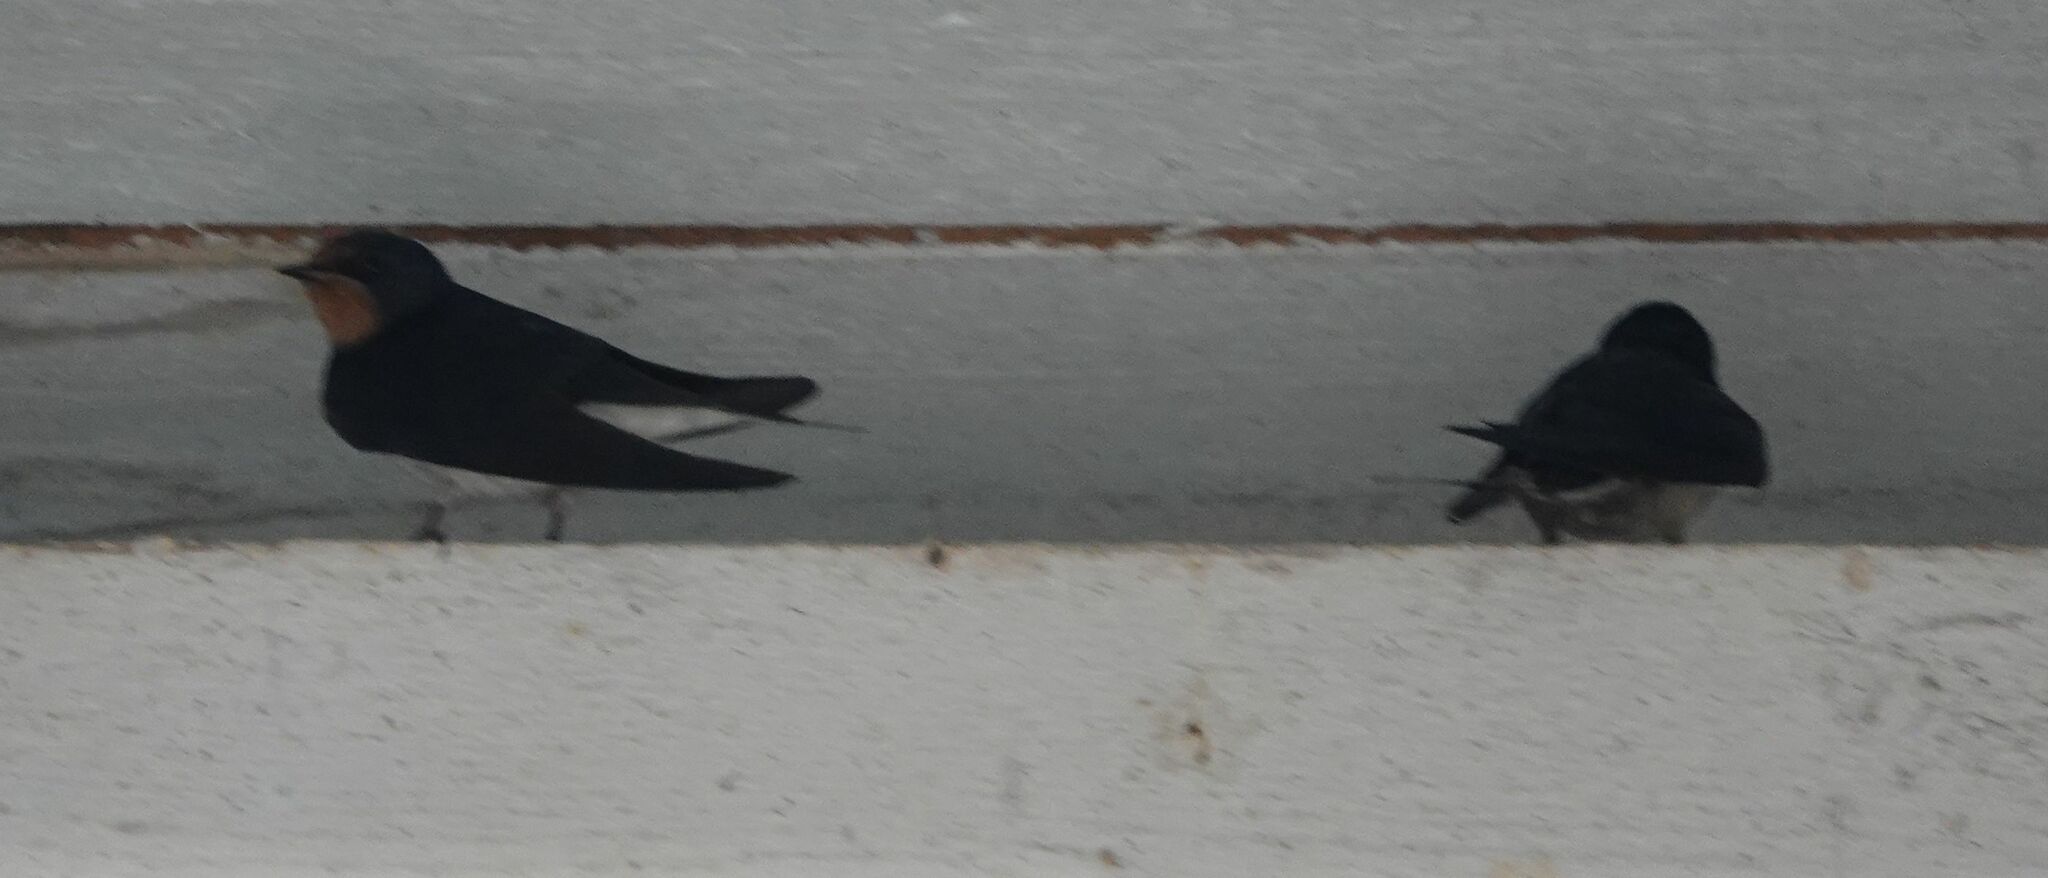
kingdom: Animalia
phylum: Chordata
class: Aves
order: Passeriformes
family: Hirundinidae
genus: Hirundo
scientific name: Hirundo rustica
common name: Barn swallow
